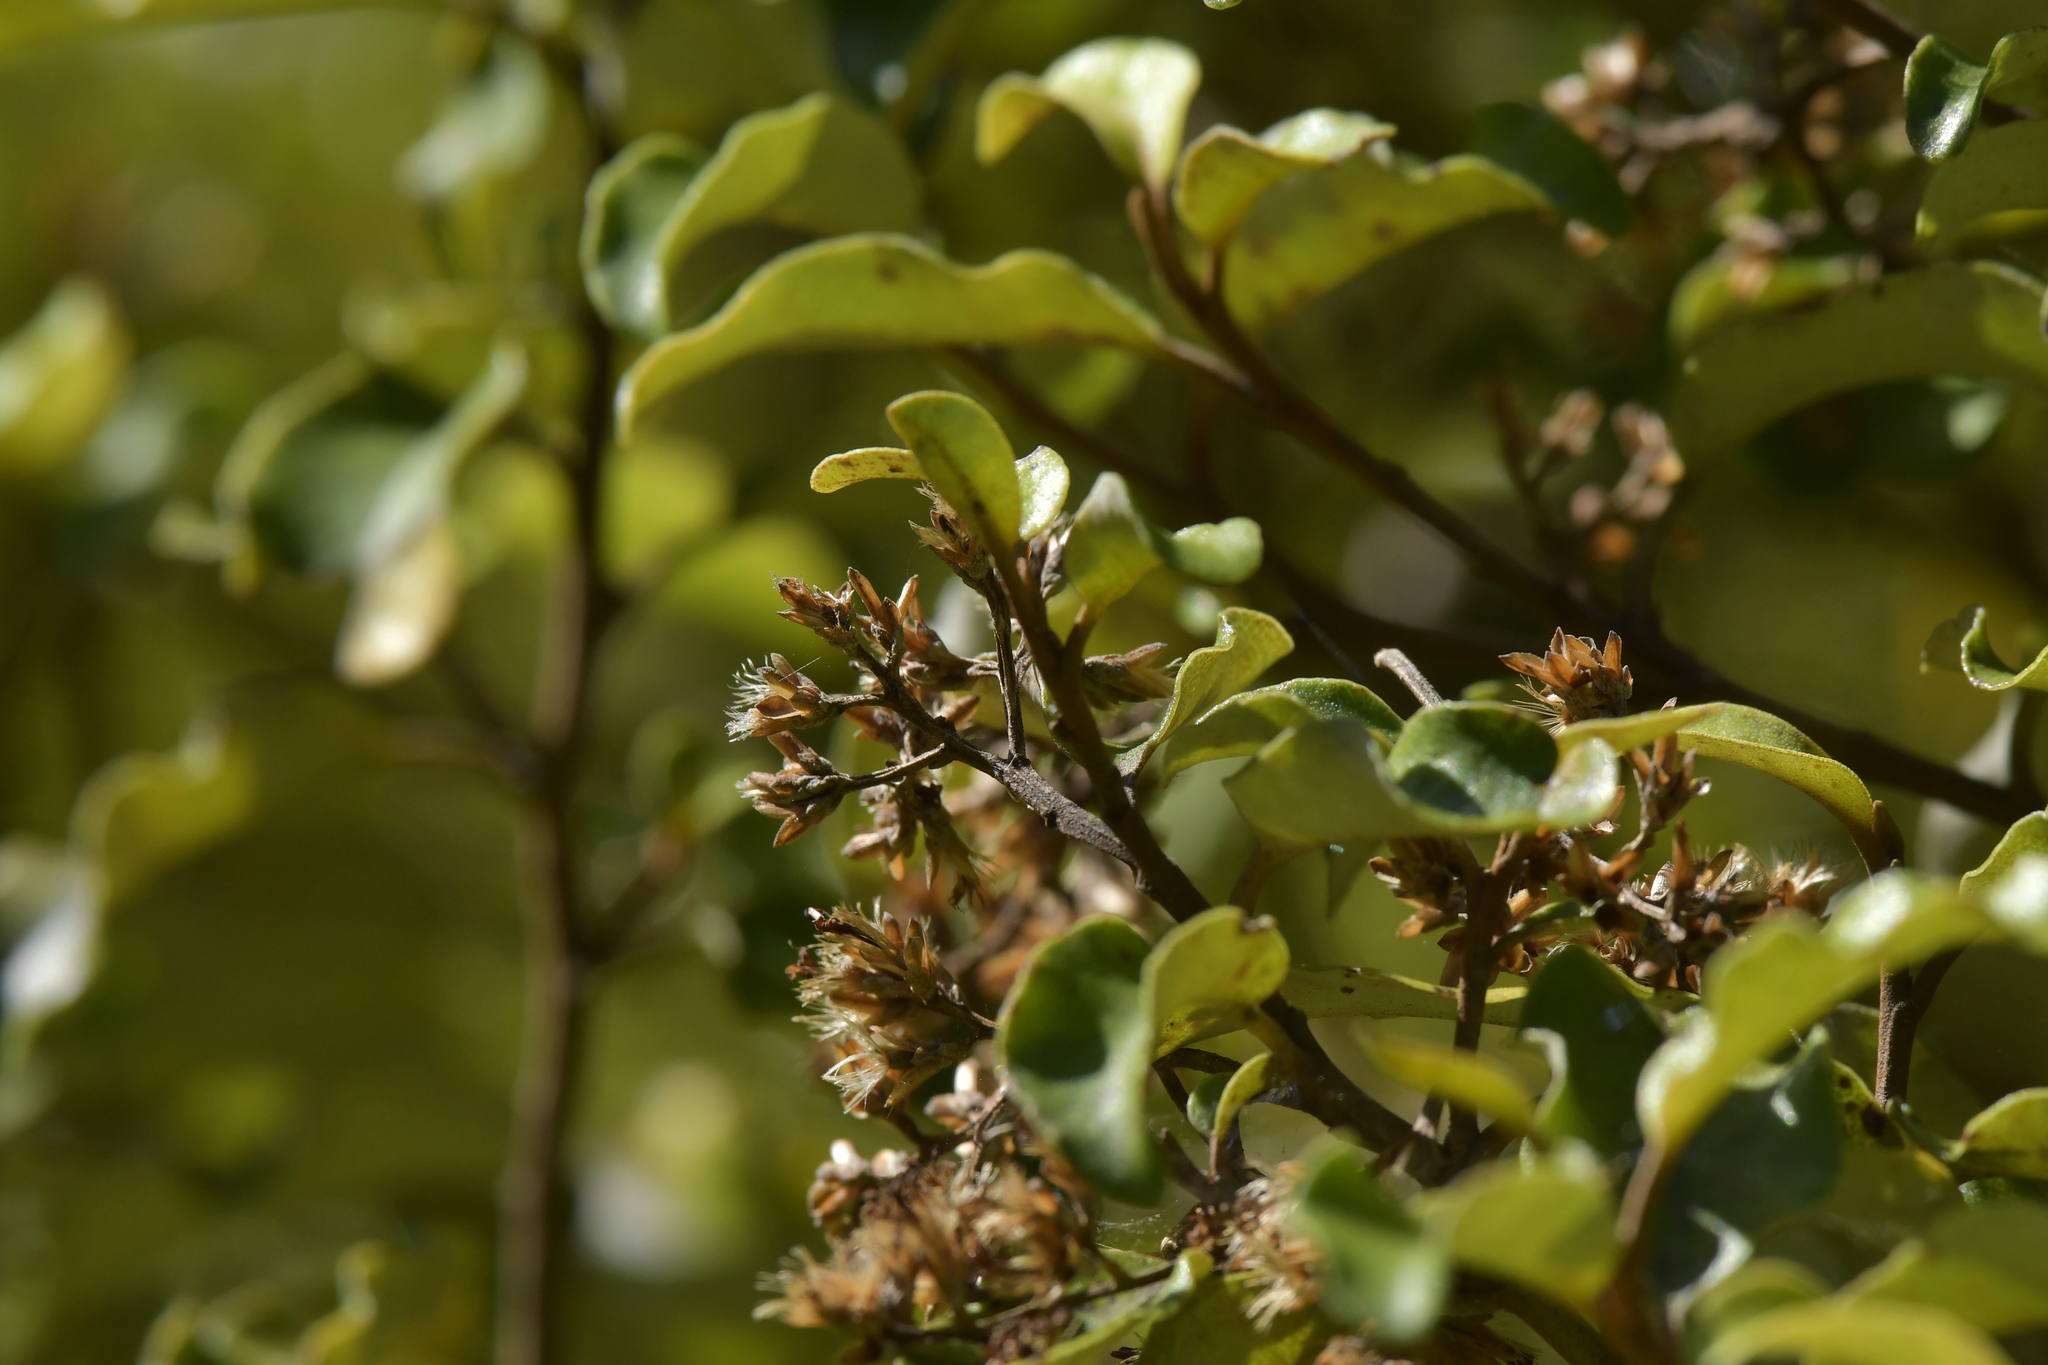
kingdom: Plantae
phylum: Tracheophyta
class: Magnoliopsida
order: Asterales
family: Asteraceae
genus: Olearia
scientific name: Olearia paniculata
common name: Akiraho
